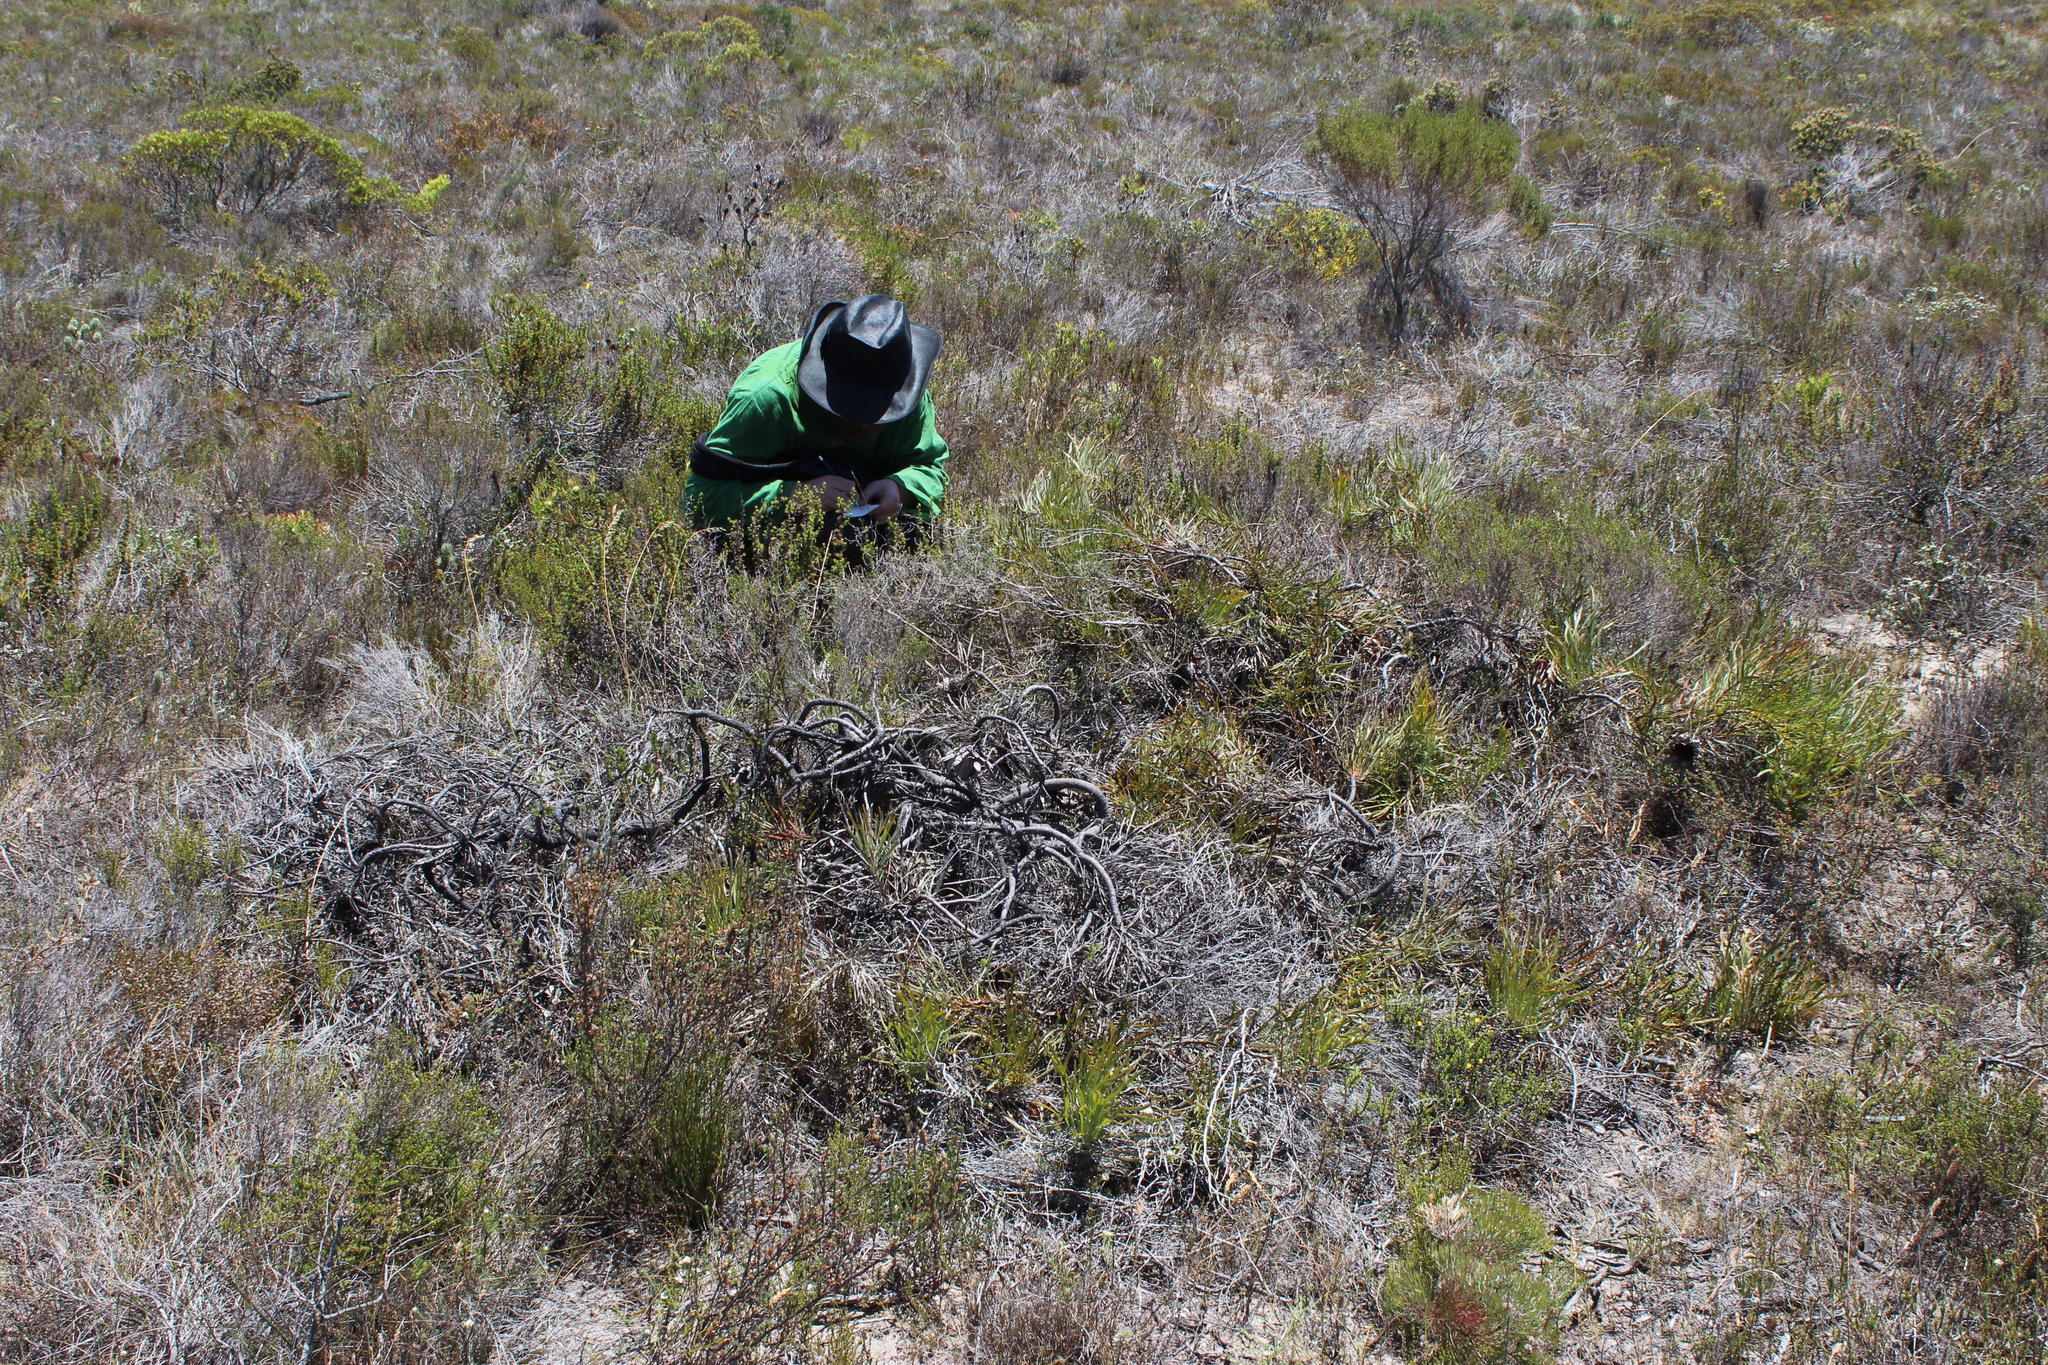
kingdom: Plantae
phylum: Tracheophyta
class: Magnoliopsida
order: Proteales
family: Proteaceae
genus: Protea
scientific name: Protea pudens
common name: Bashful sugarbush
